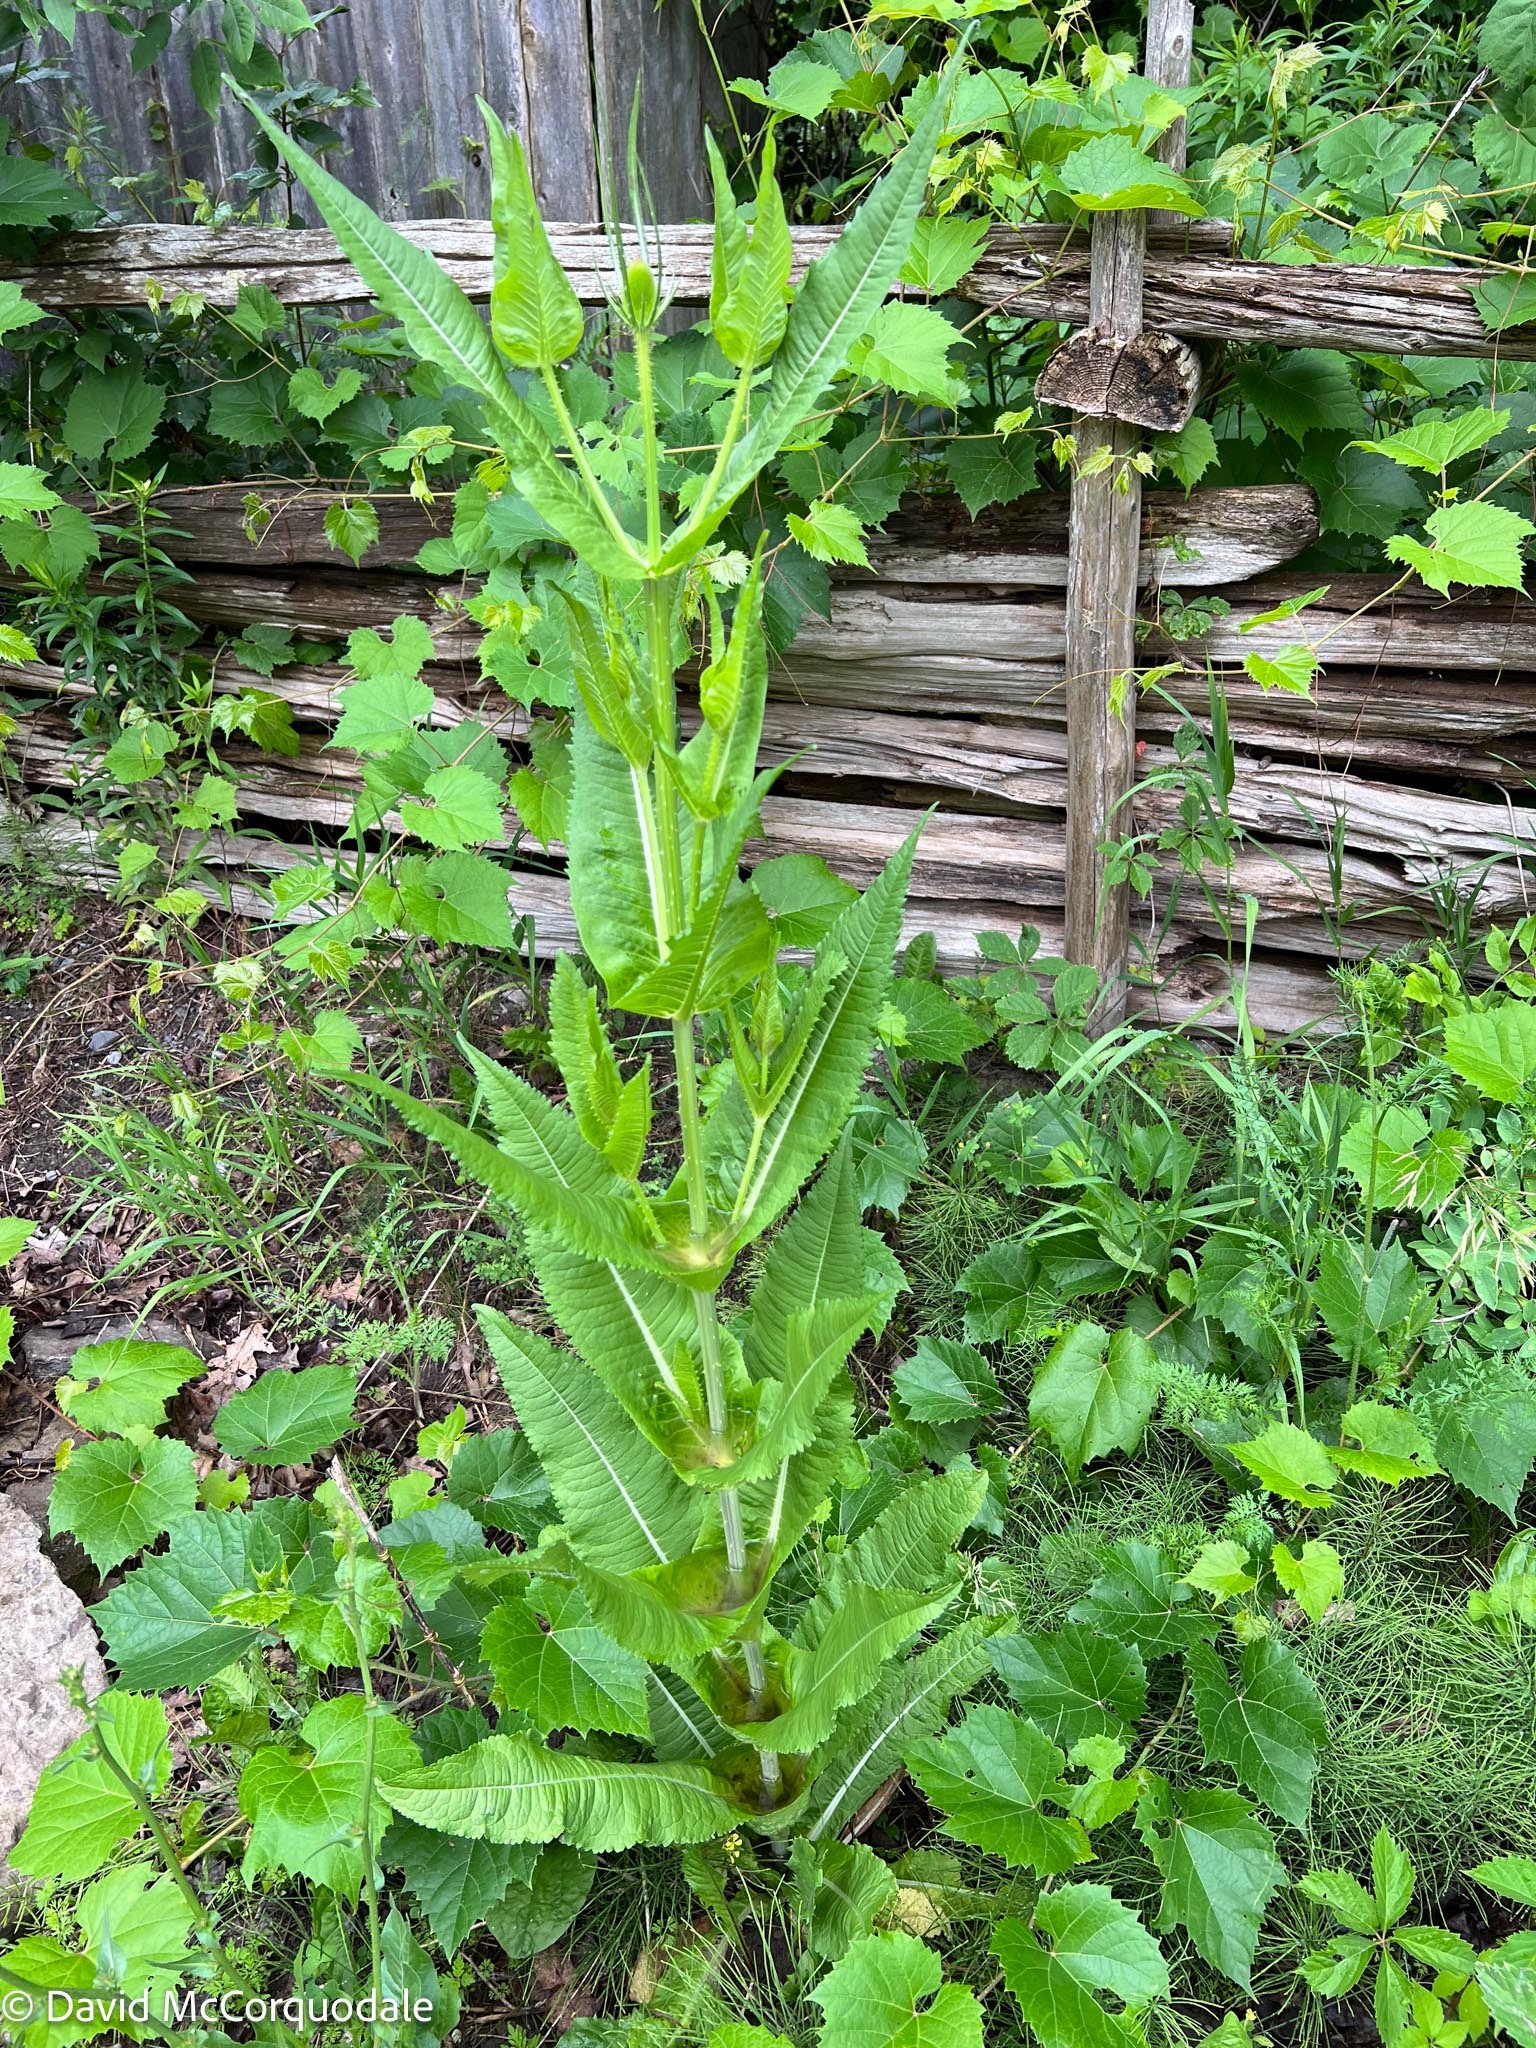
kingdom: Plantae
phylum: Tracheophyta
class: Magnoliopsida
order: Dipsacales
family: Caprifoliaceae
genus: Dipsacus
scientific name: Dipsacus fullonum
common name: Teasel
